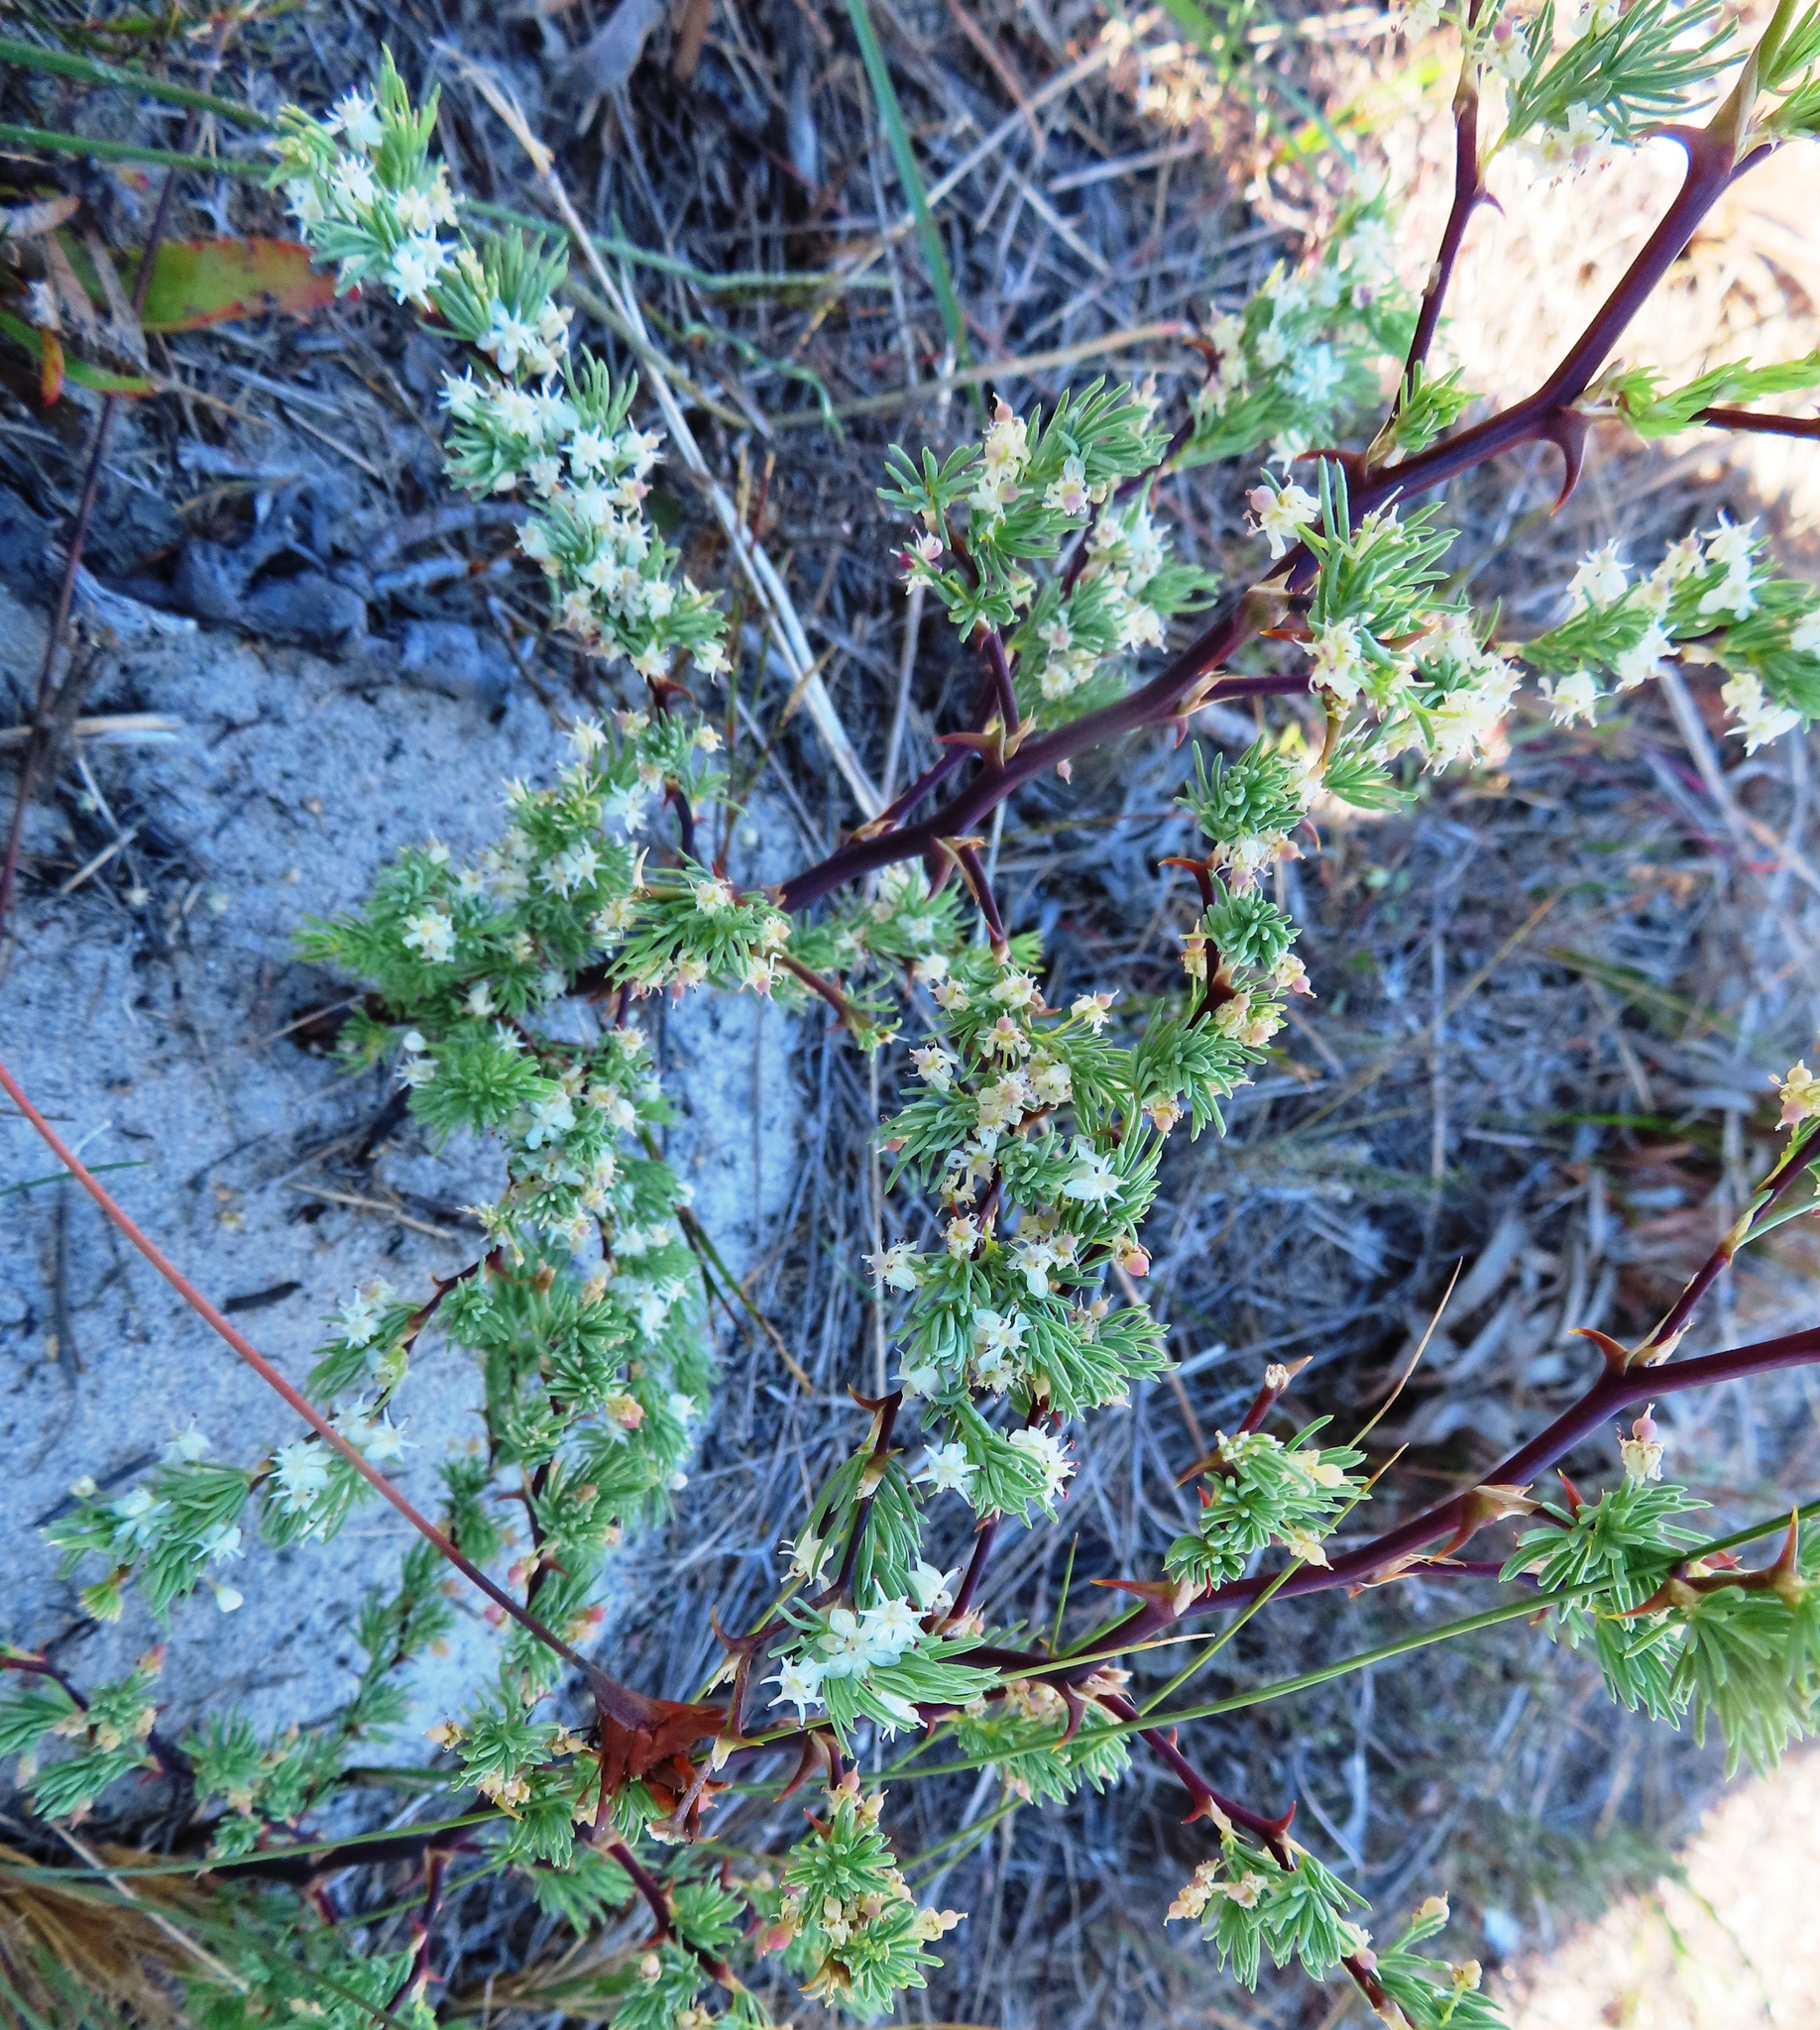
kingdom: Plantae
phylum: Tracheophyta
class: Liliopsida
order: Asparagales
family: Asparagaceae
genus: Asparagus
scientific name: Asparagus rubicundus
